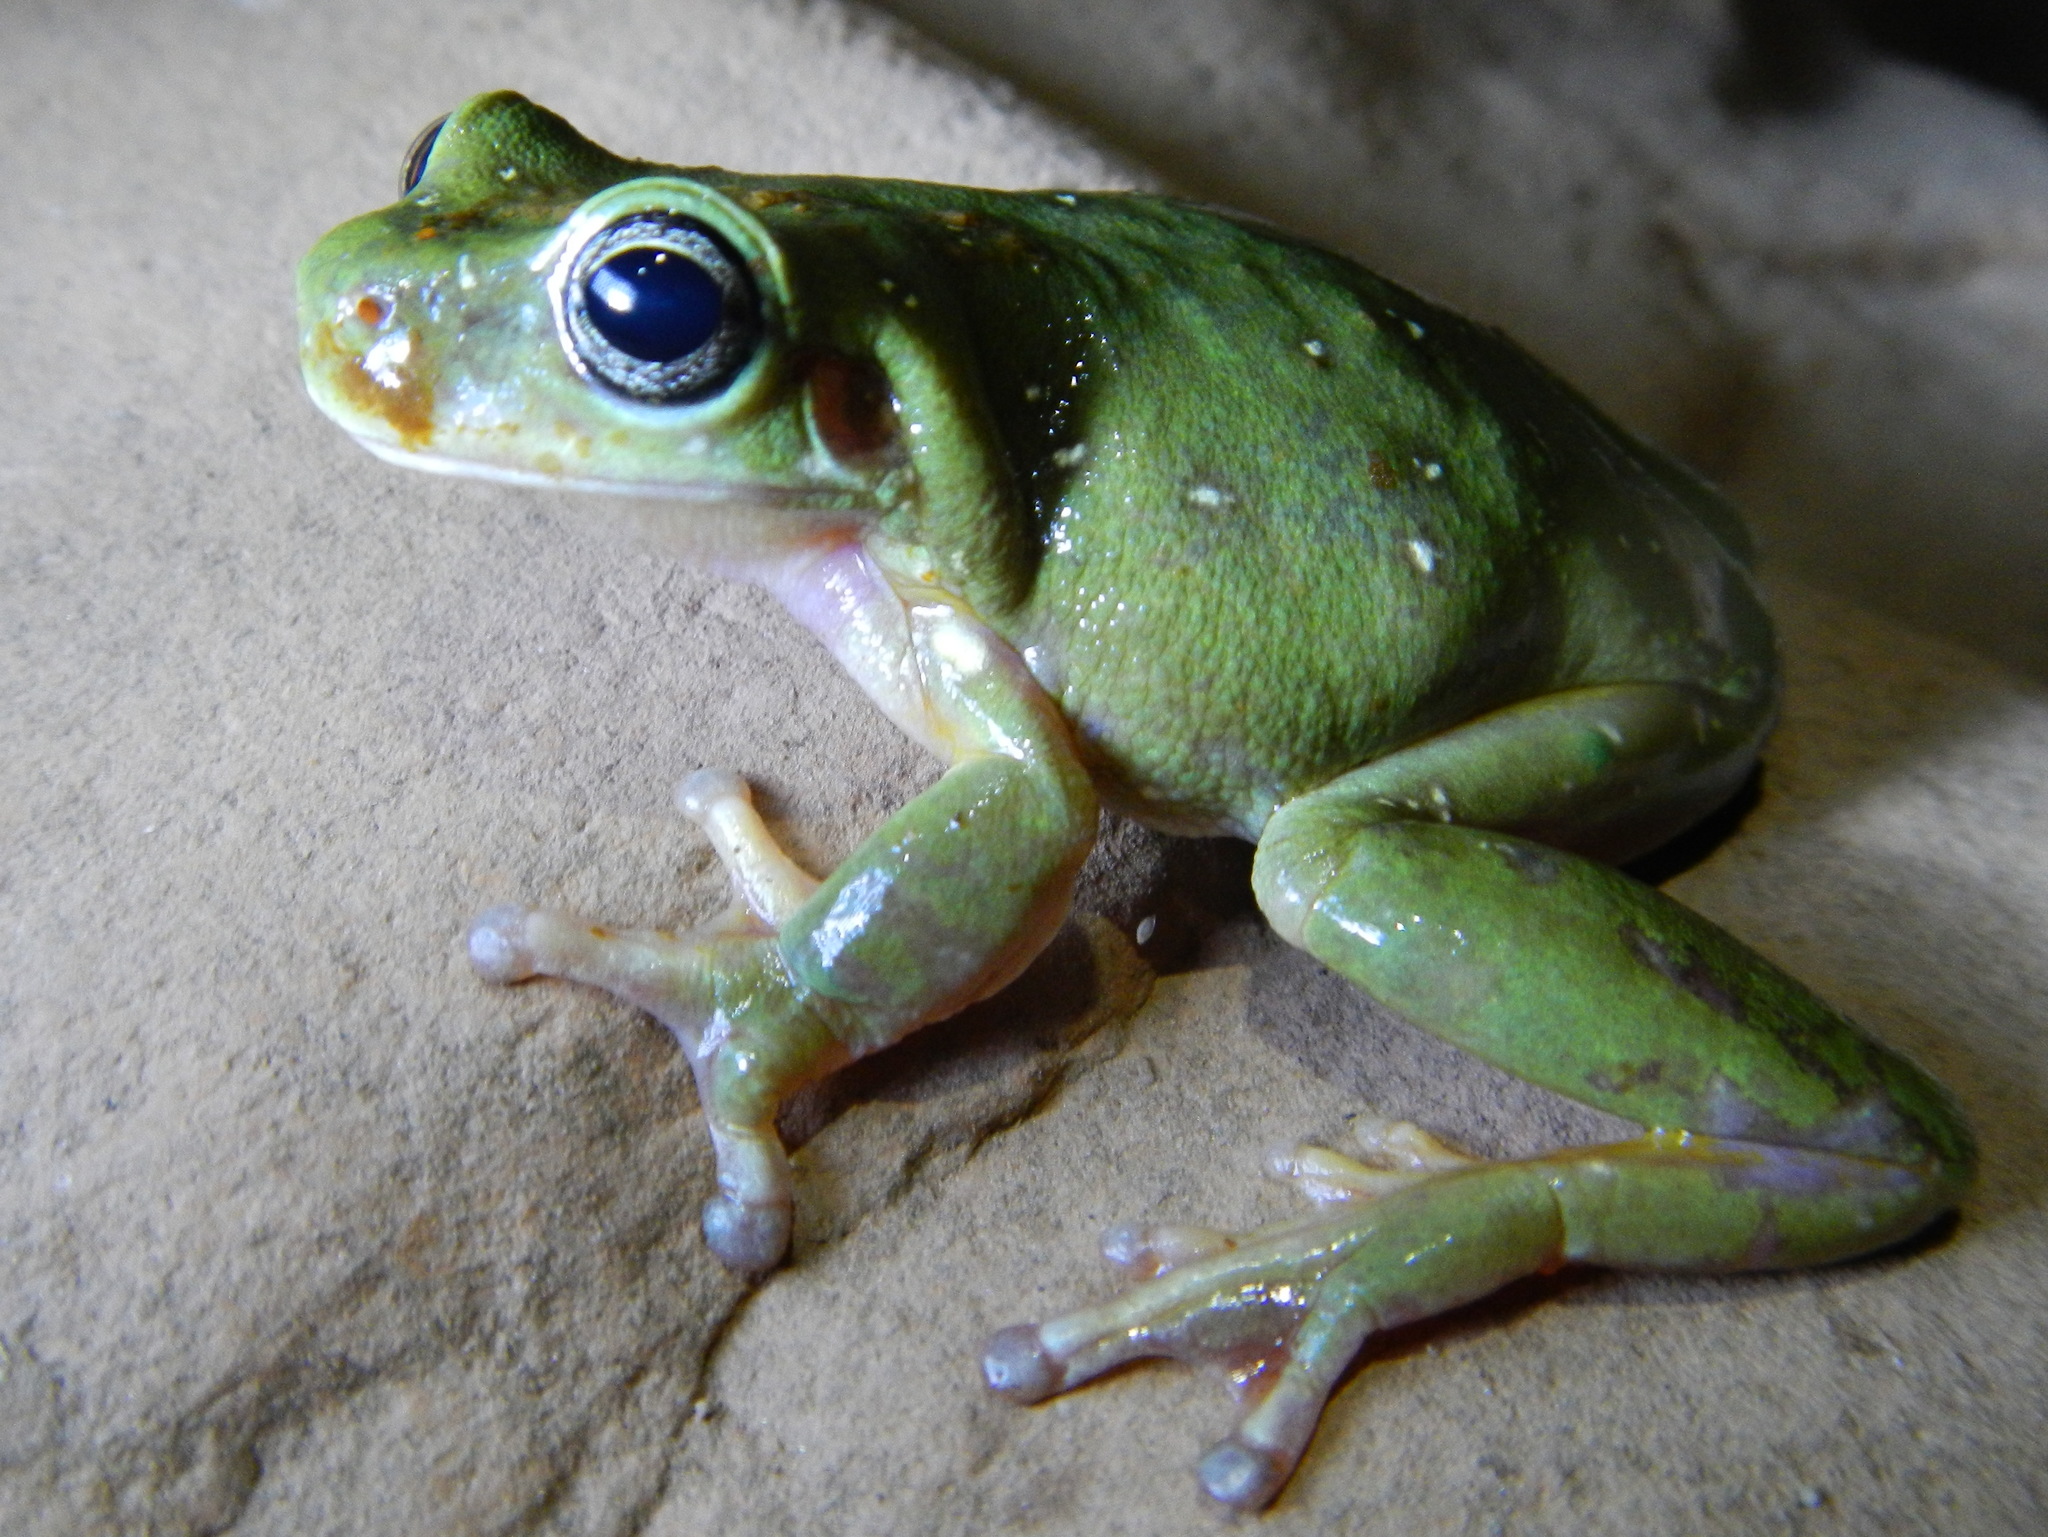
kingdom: Animalia
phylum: Chordata
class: Amphibia
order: Anura
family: Pelodryadidae
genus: Ranoidea
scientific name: Ranoidea gilleni
